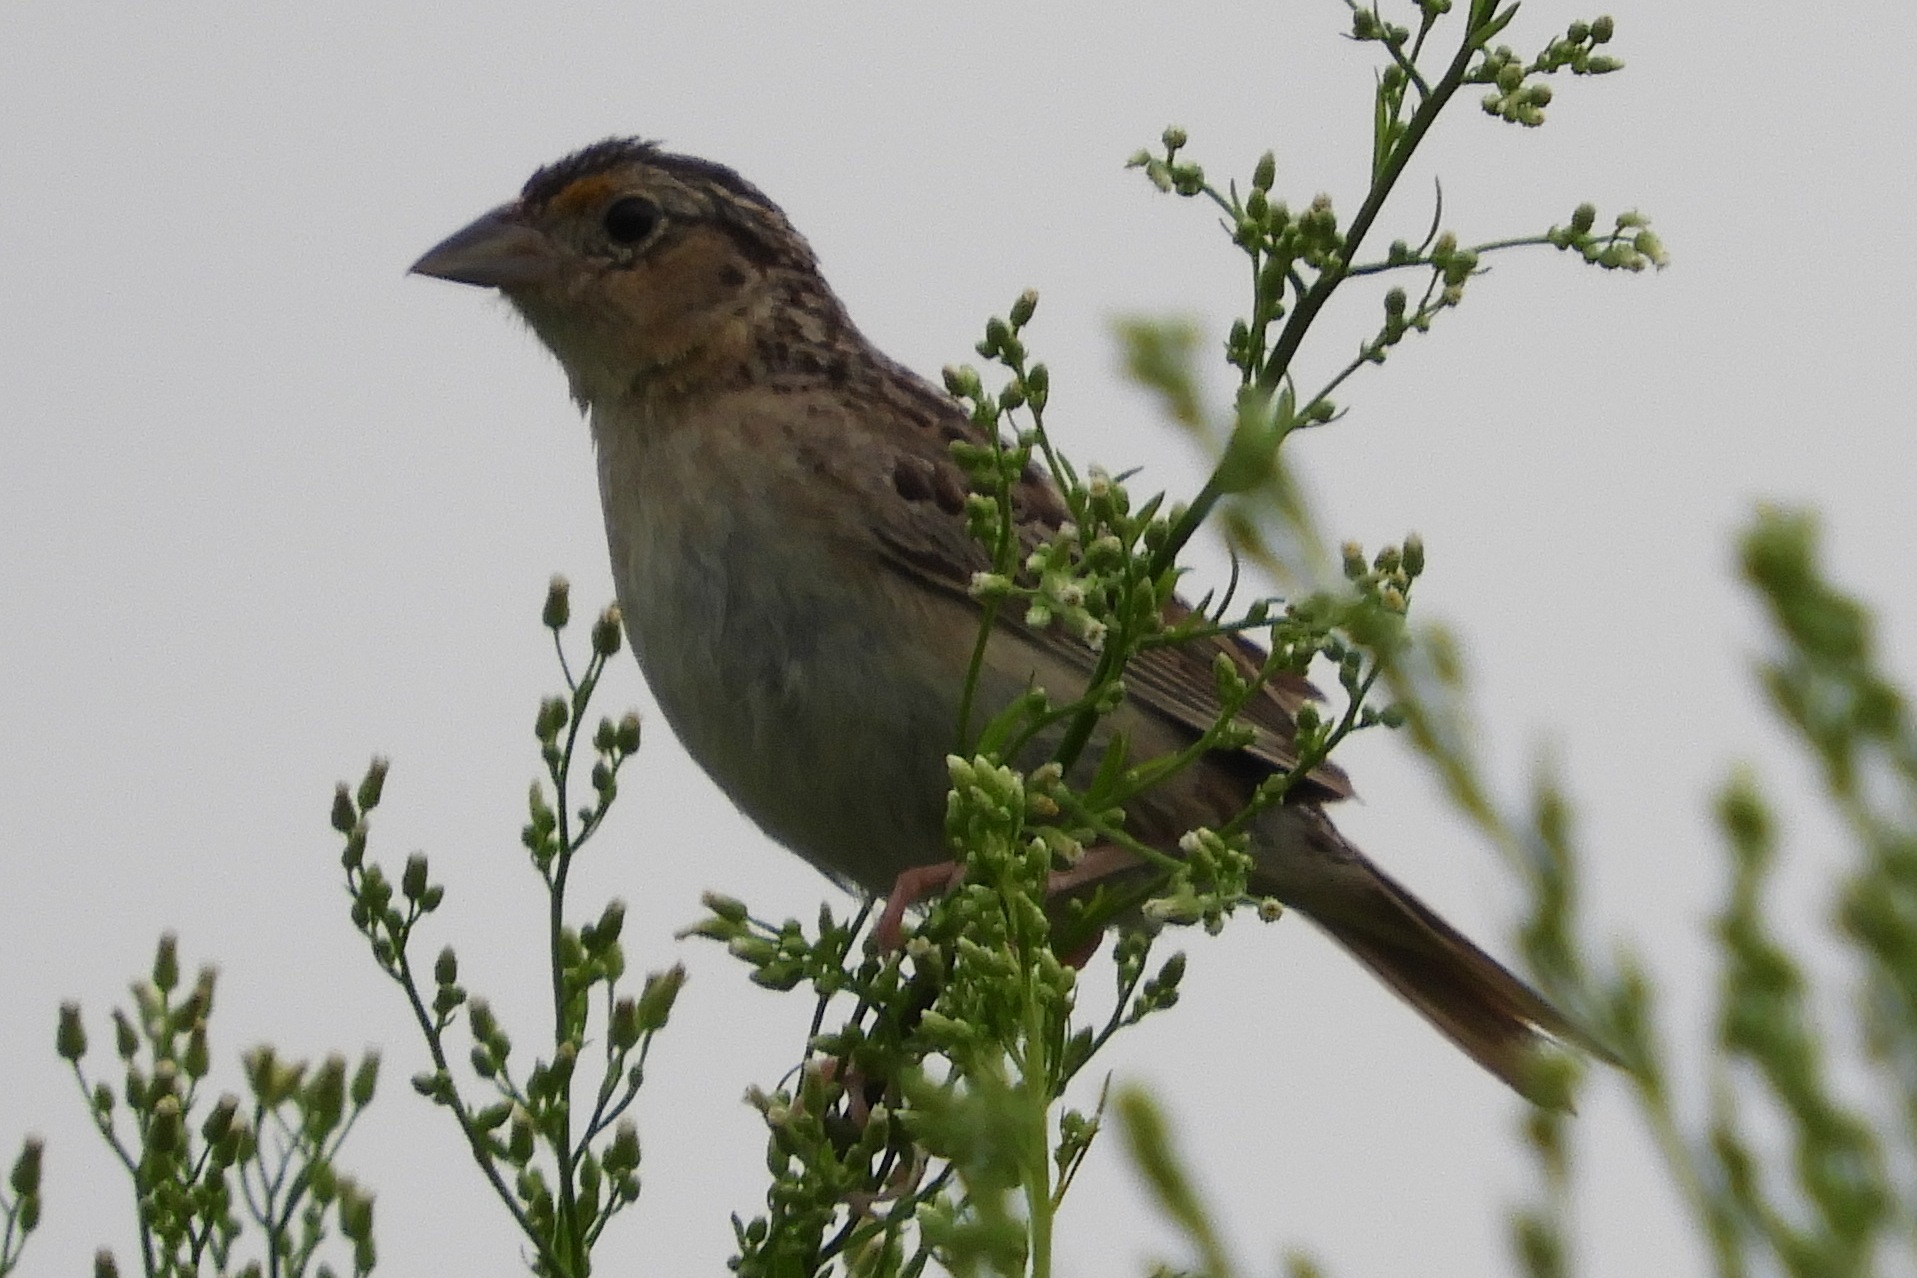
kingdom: Animalia
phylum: Chordata
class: Aves
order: Passeriformes
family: Passerellidae
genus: Ammodramus
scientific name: Ammodramus savannarum
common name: Grasshopper sparrow
